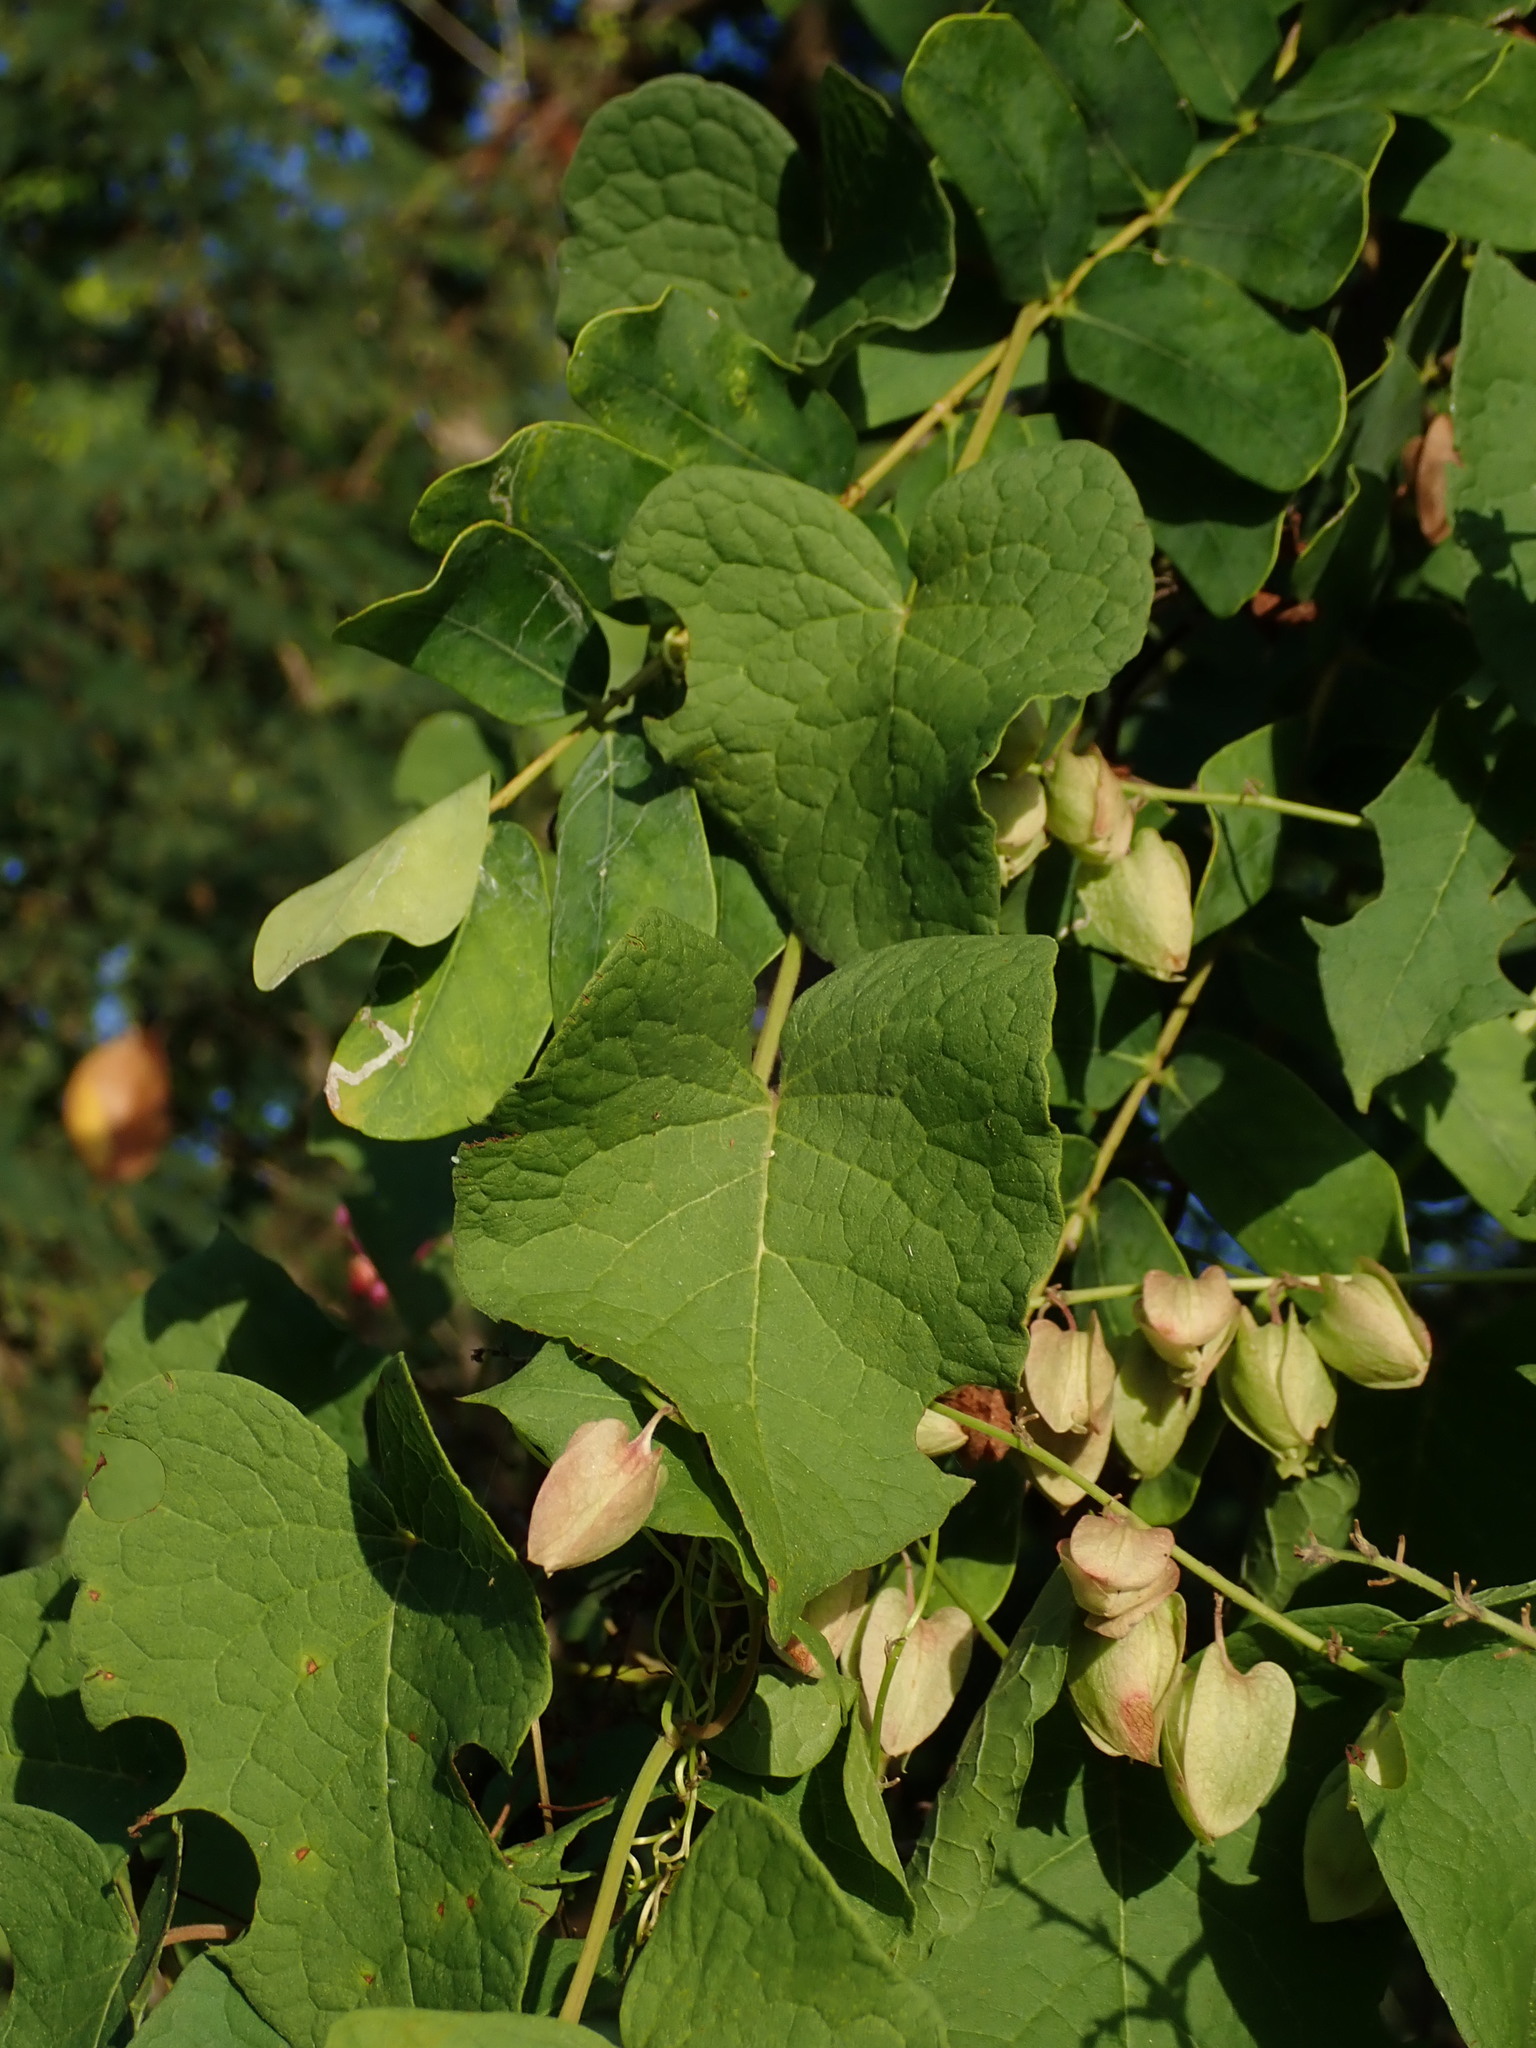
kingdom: Plantae
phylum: Tracheophyta
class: Magnoliopsida
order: Caryophyllales
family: Polygonaceae
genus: Antigonon
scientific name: Antigonon leptopus
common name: Coral vine
